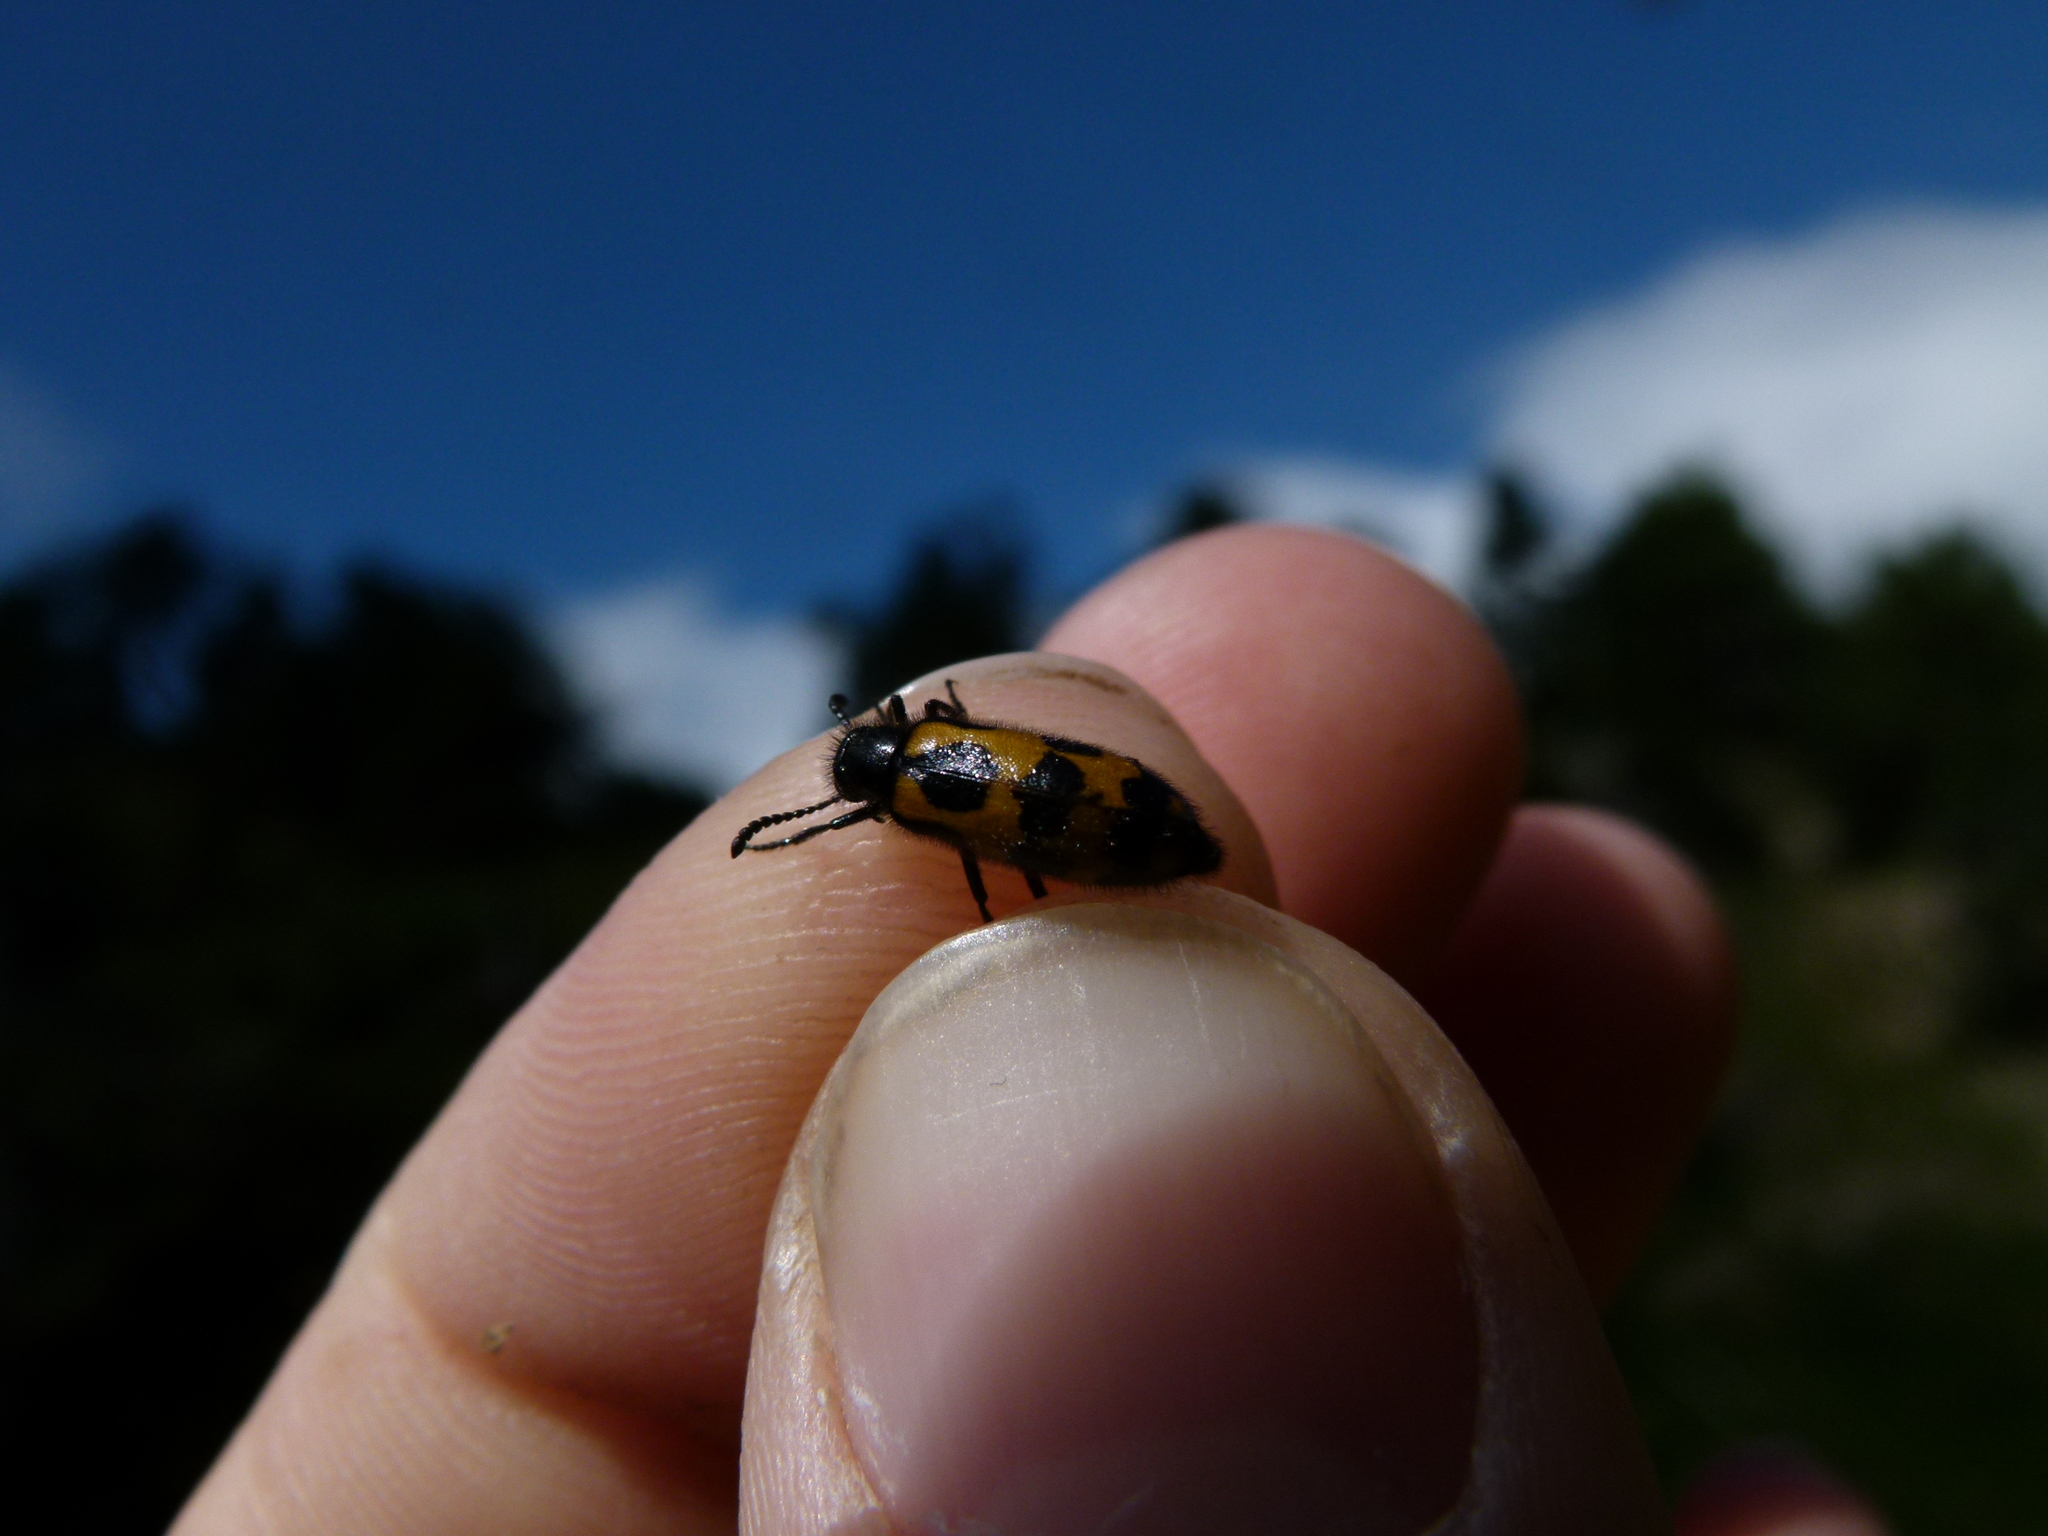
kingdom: Animalia
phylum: Arthropoda
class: Insecta
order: Coleoptera
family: Meloidae
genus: Mylabris
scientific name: Mylabris flexuosa
